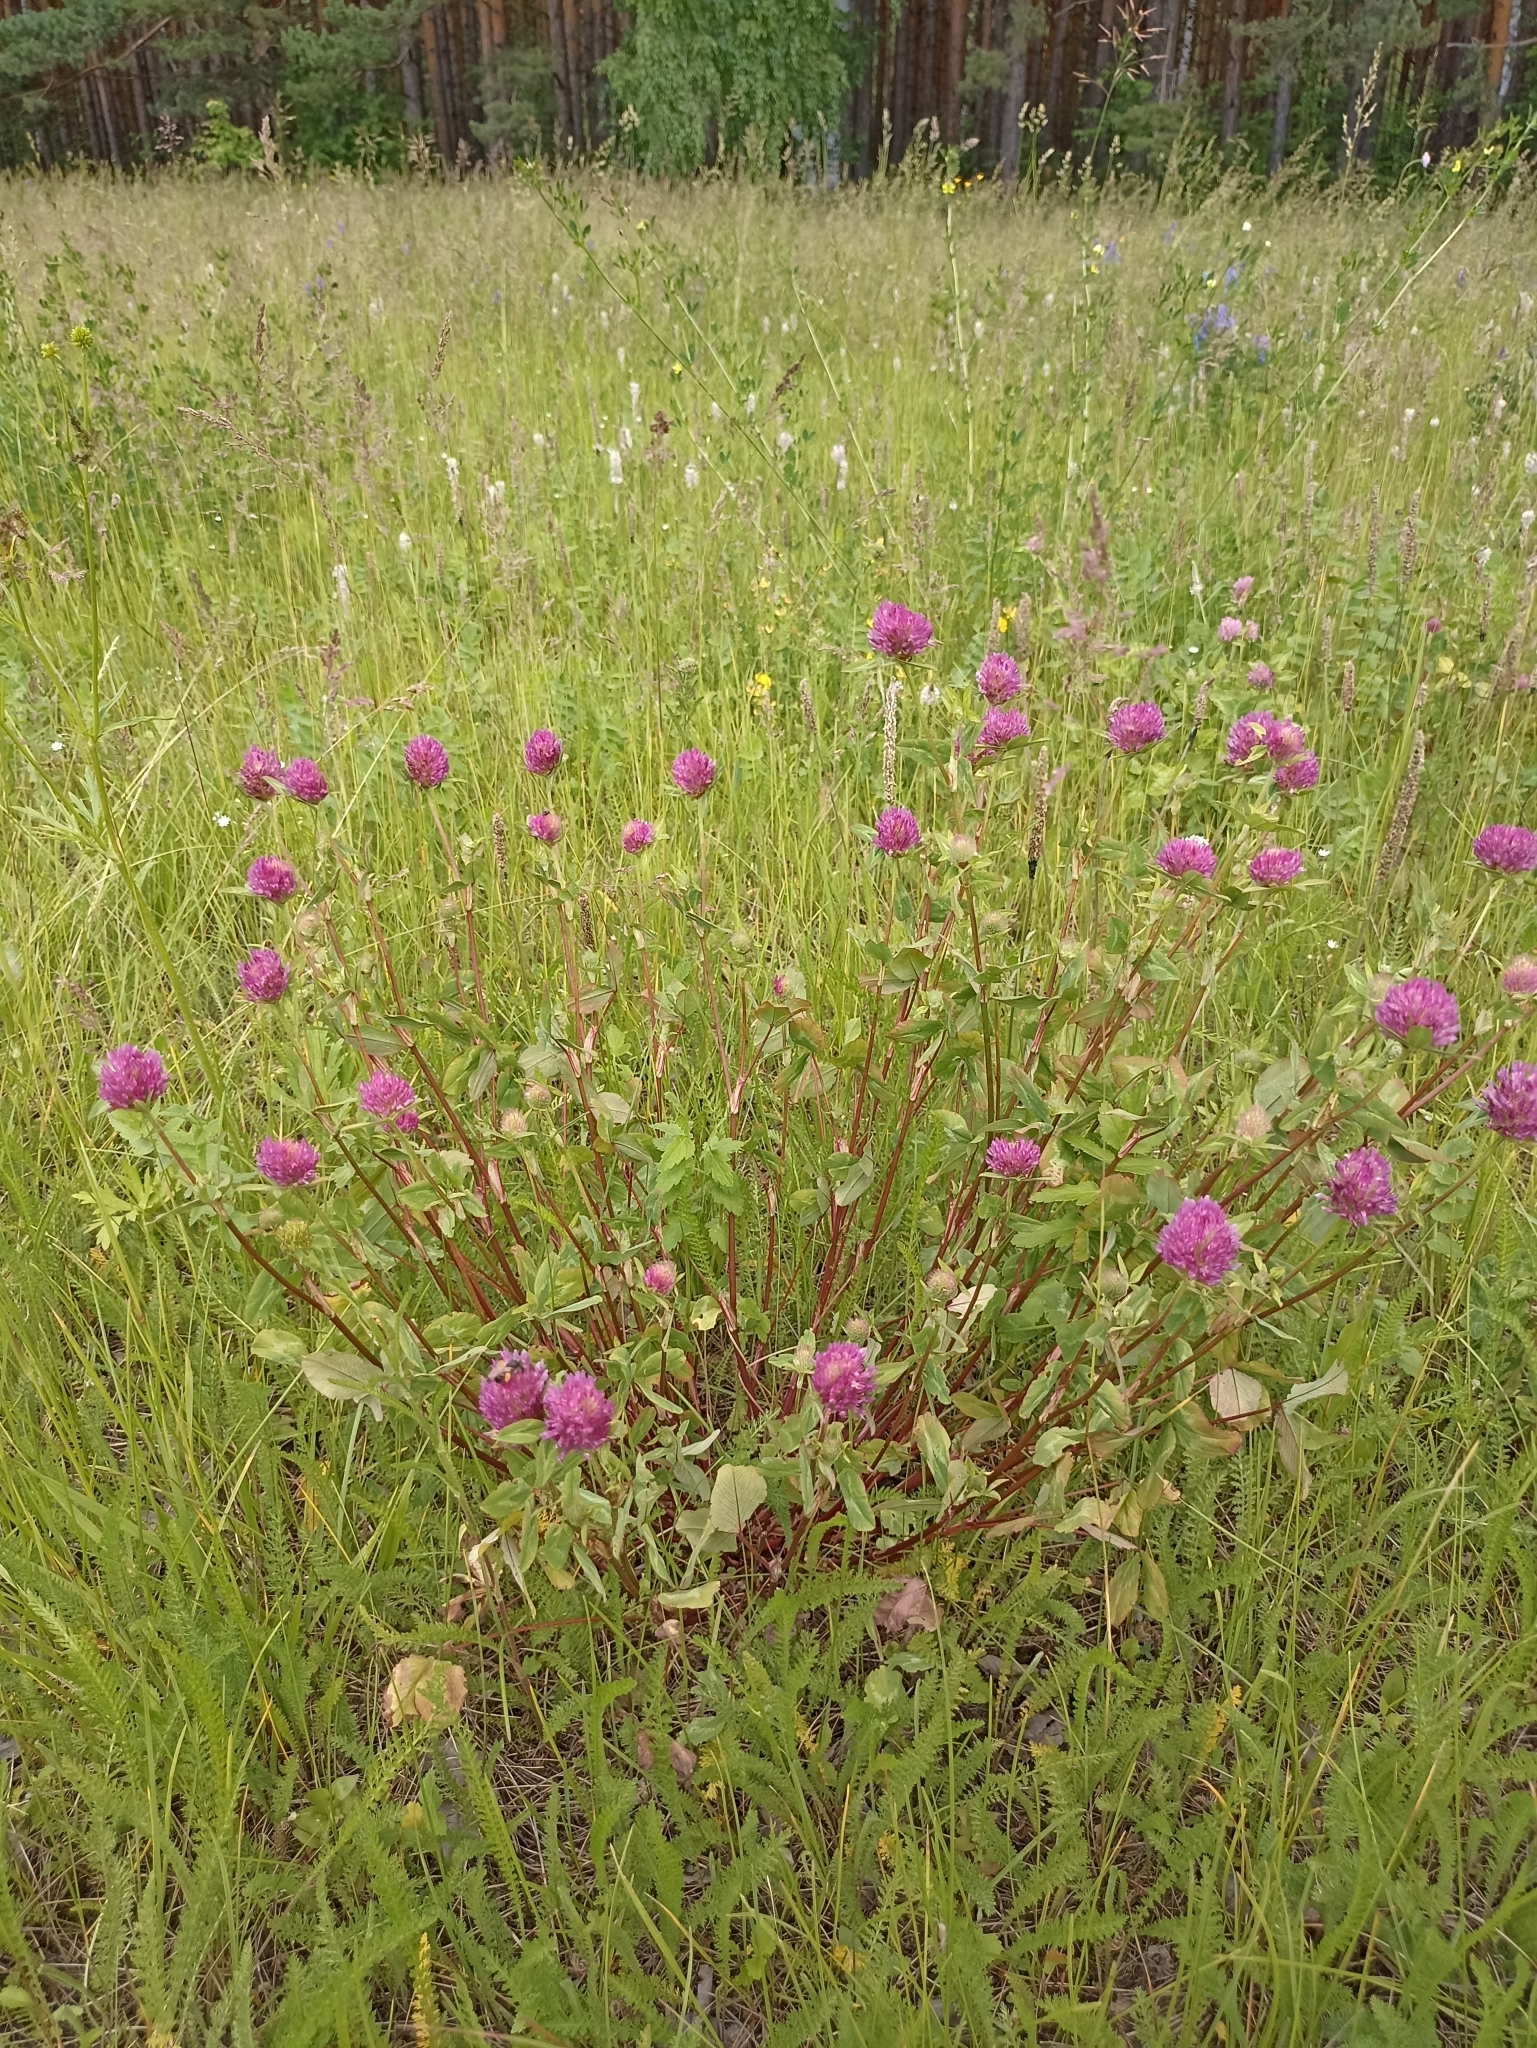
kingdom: Plantae
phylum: Tracheophyta
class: Magnoliopsida
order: Fabales
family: Fabaceae
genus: Trifolium
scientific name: Trifolium pratense
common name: Red clover
